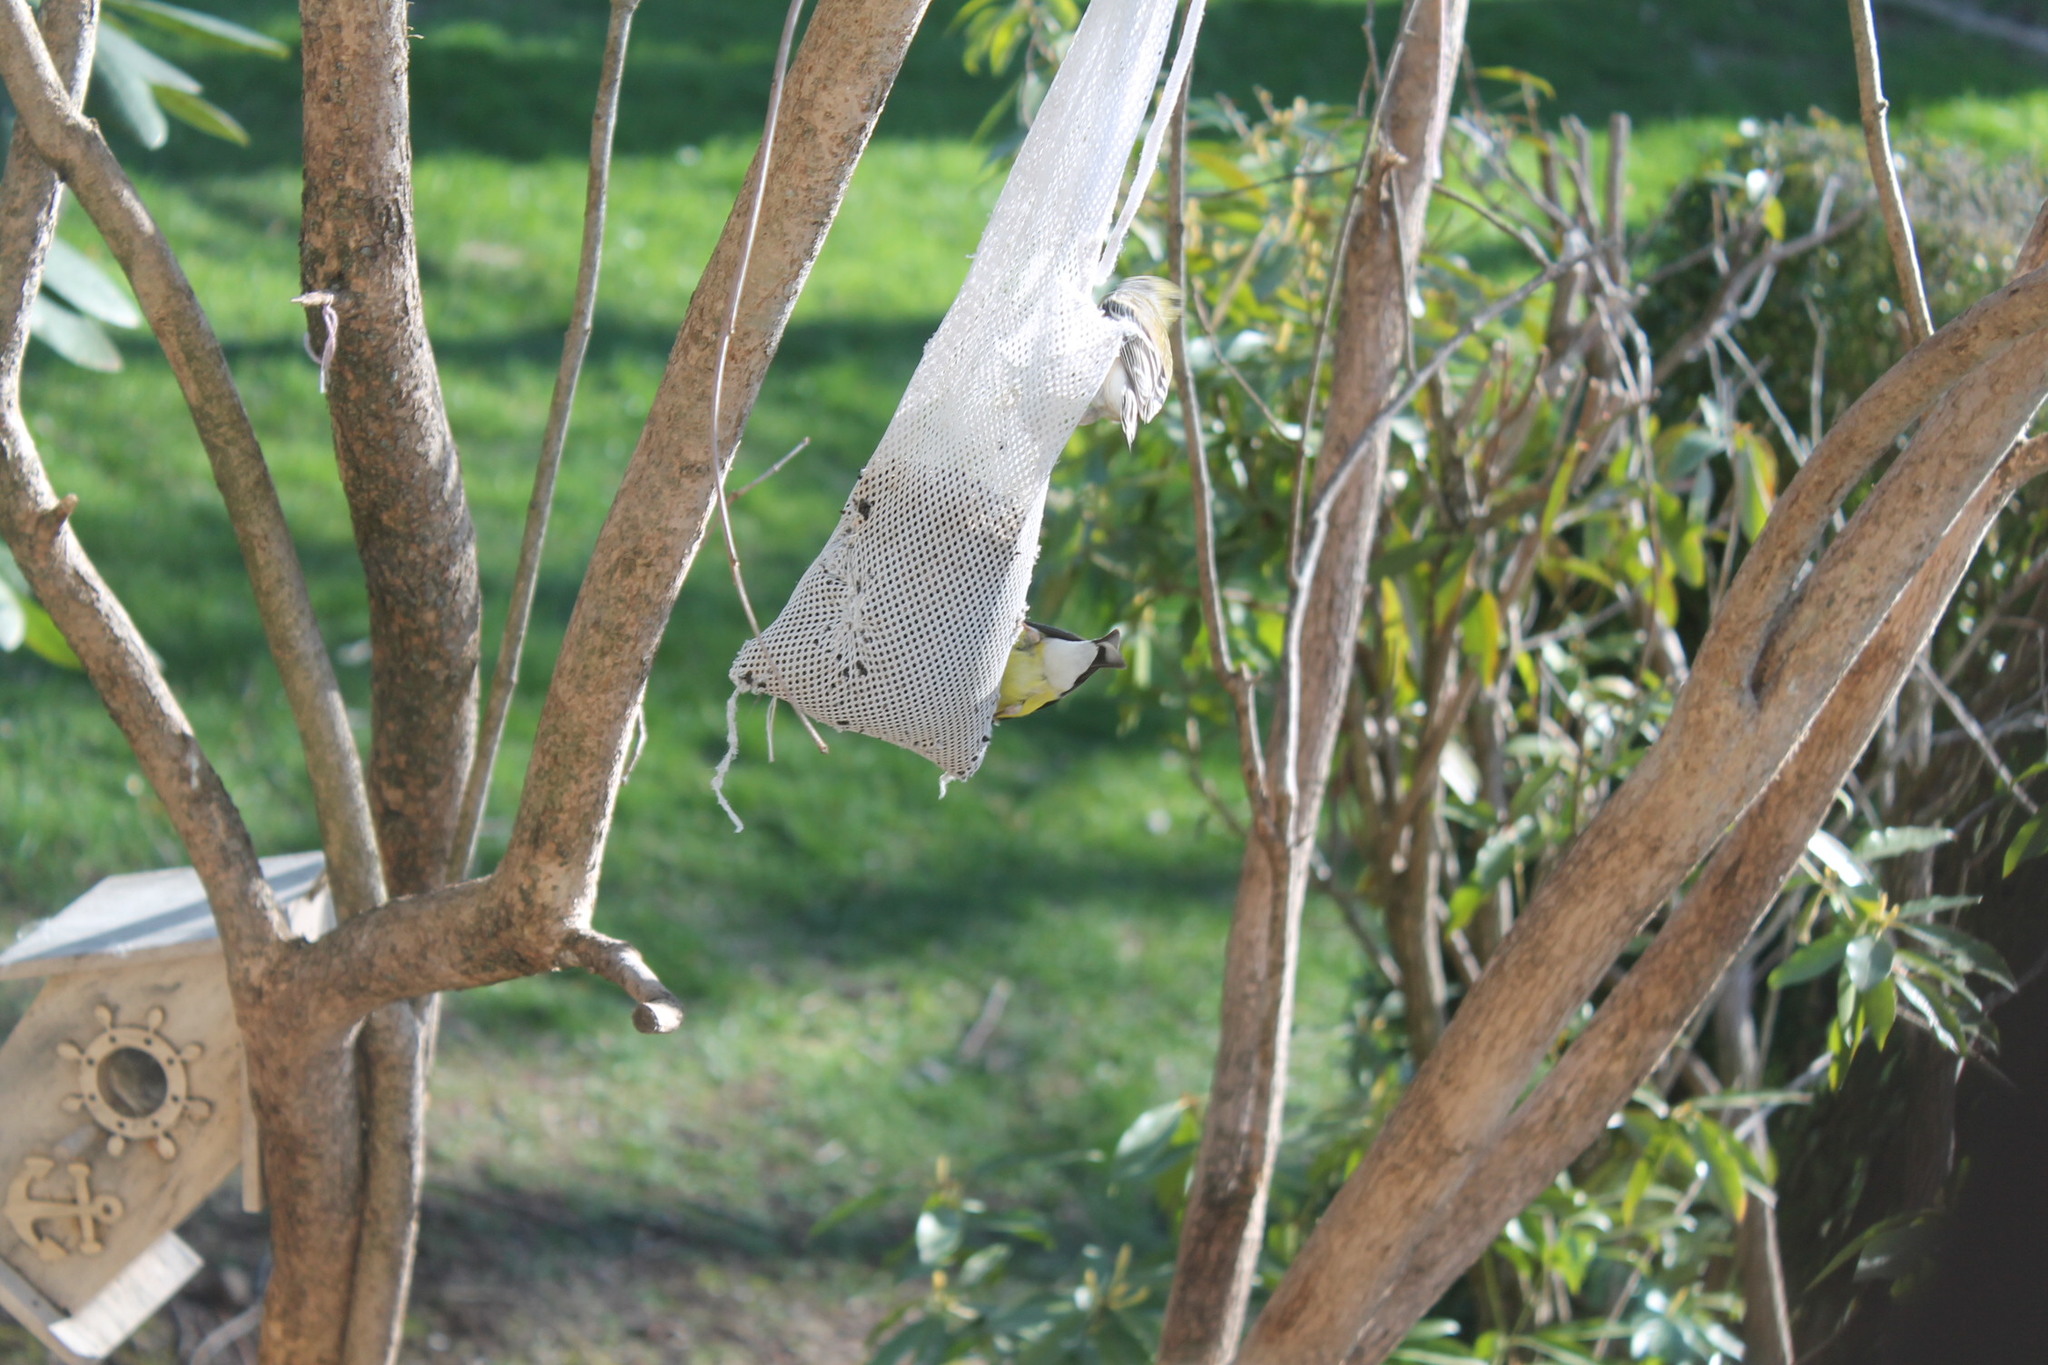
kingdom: Animalia
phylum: Chordata
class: Aves
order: Passeriformes
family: Fringillidae
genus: Spinus
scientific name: Spinus tristis
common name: American goldfinch
